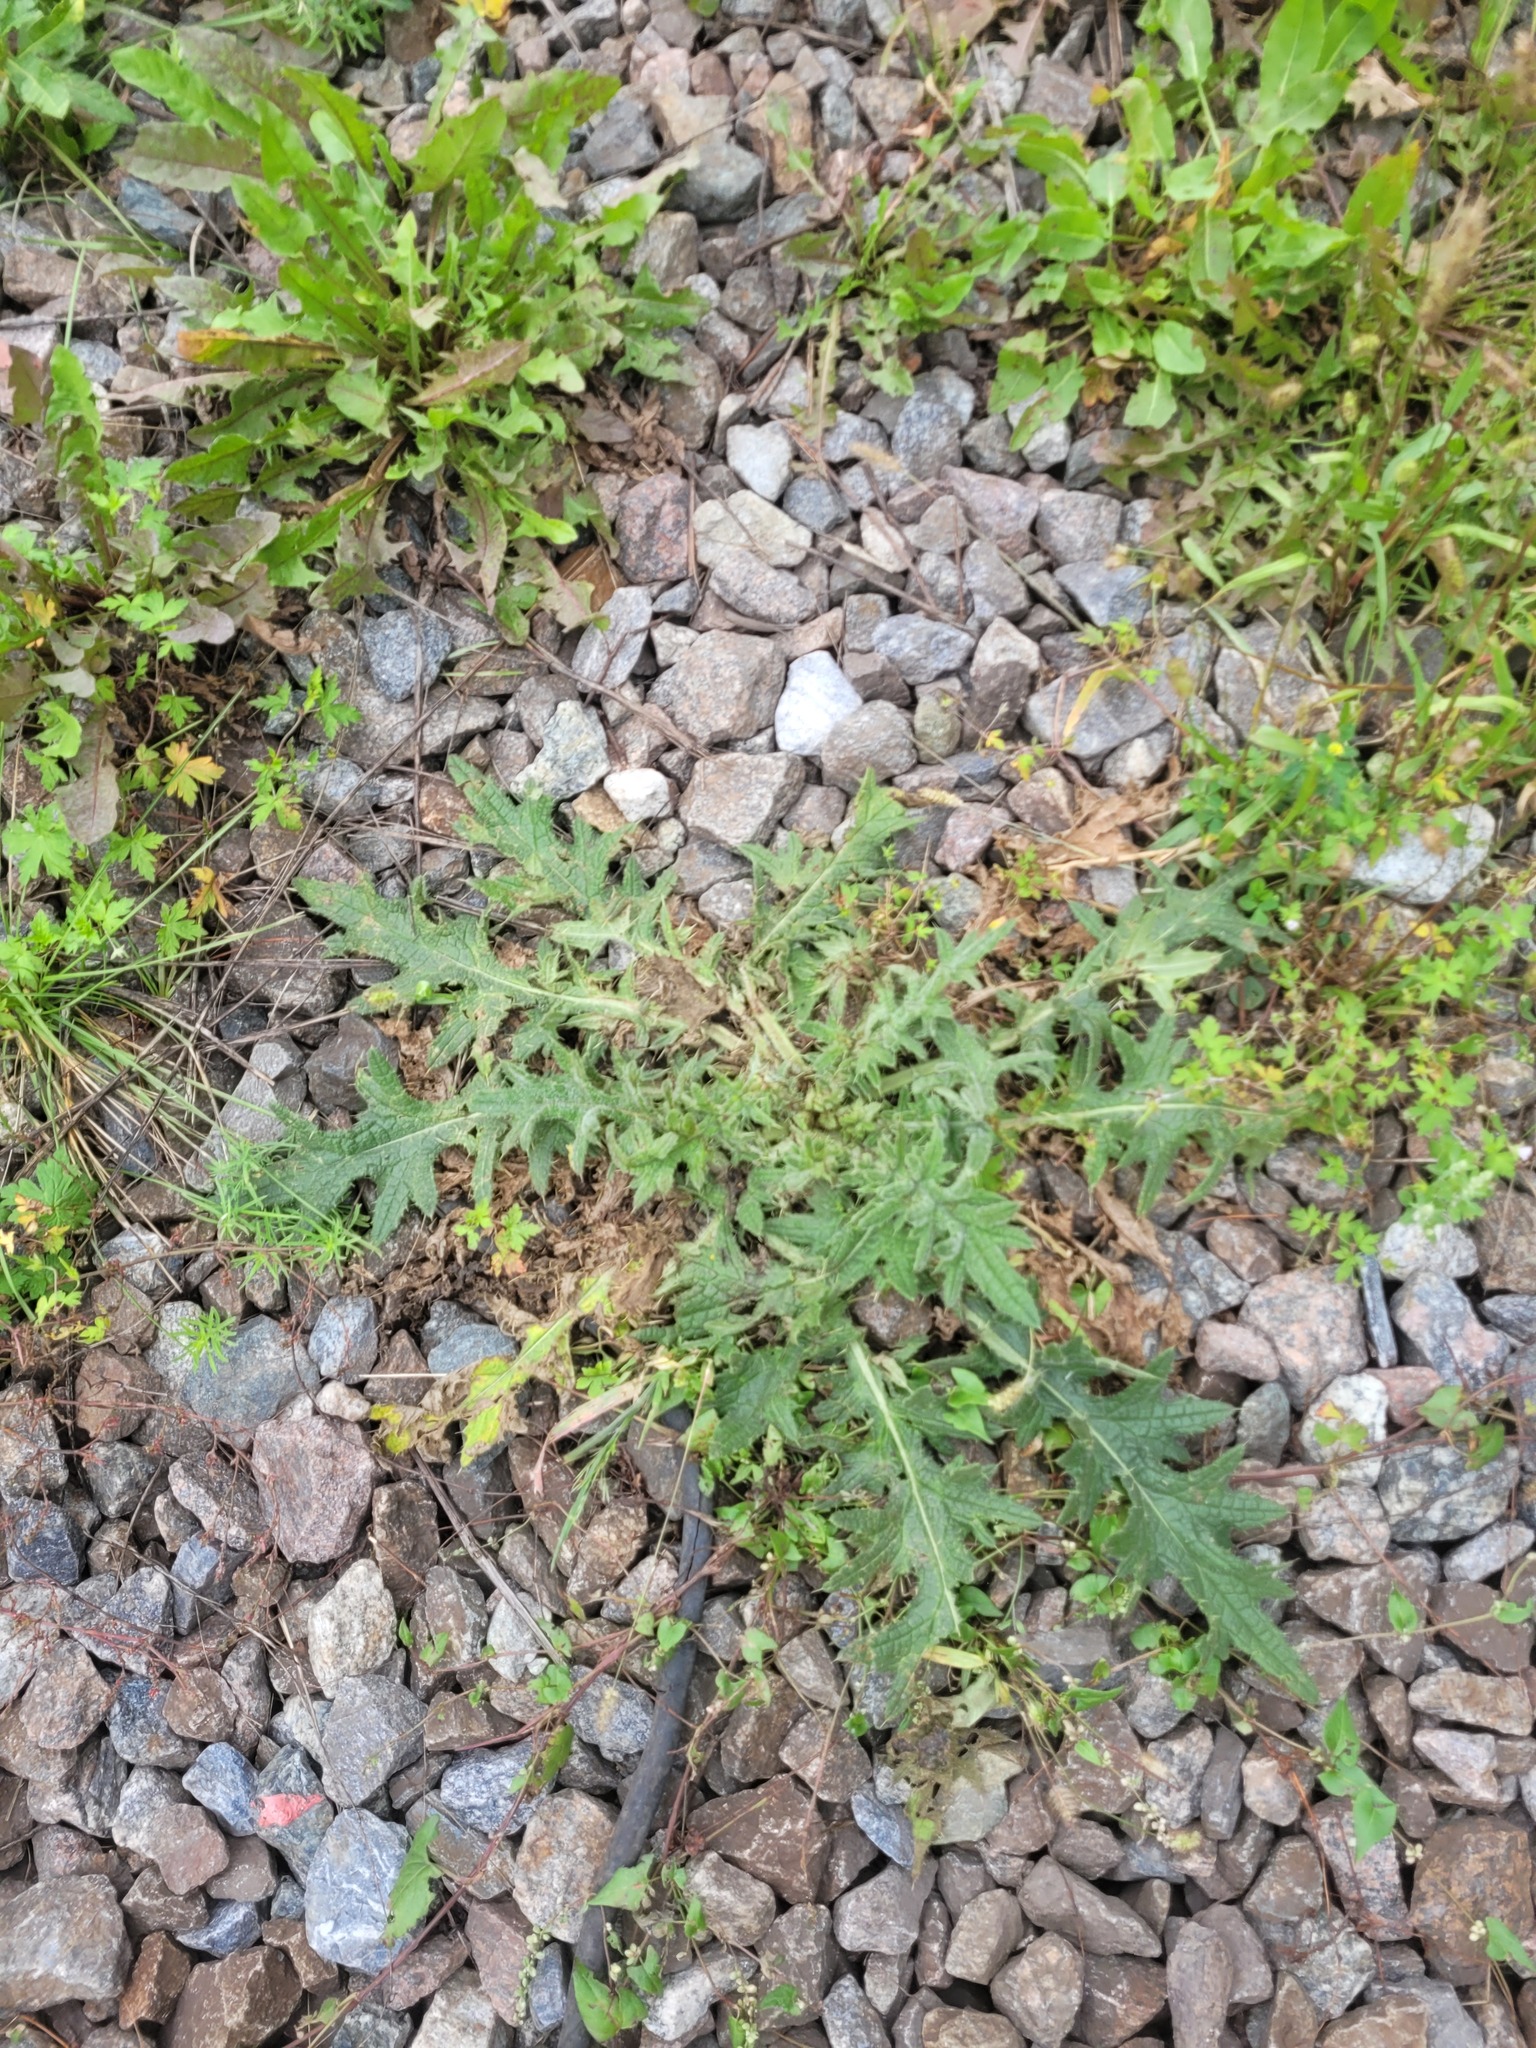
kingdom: Plantae
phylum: Tracheophyta
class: Magnoliopsida
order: Asterales
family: Asteraceae
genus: Cirsium
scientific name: Cirsium vulgare
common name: Bull thistle
